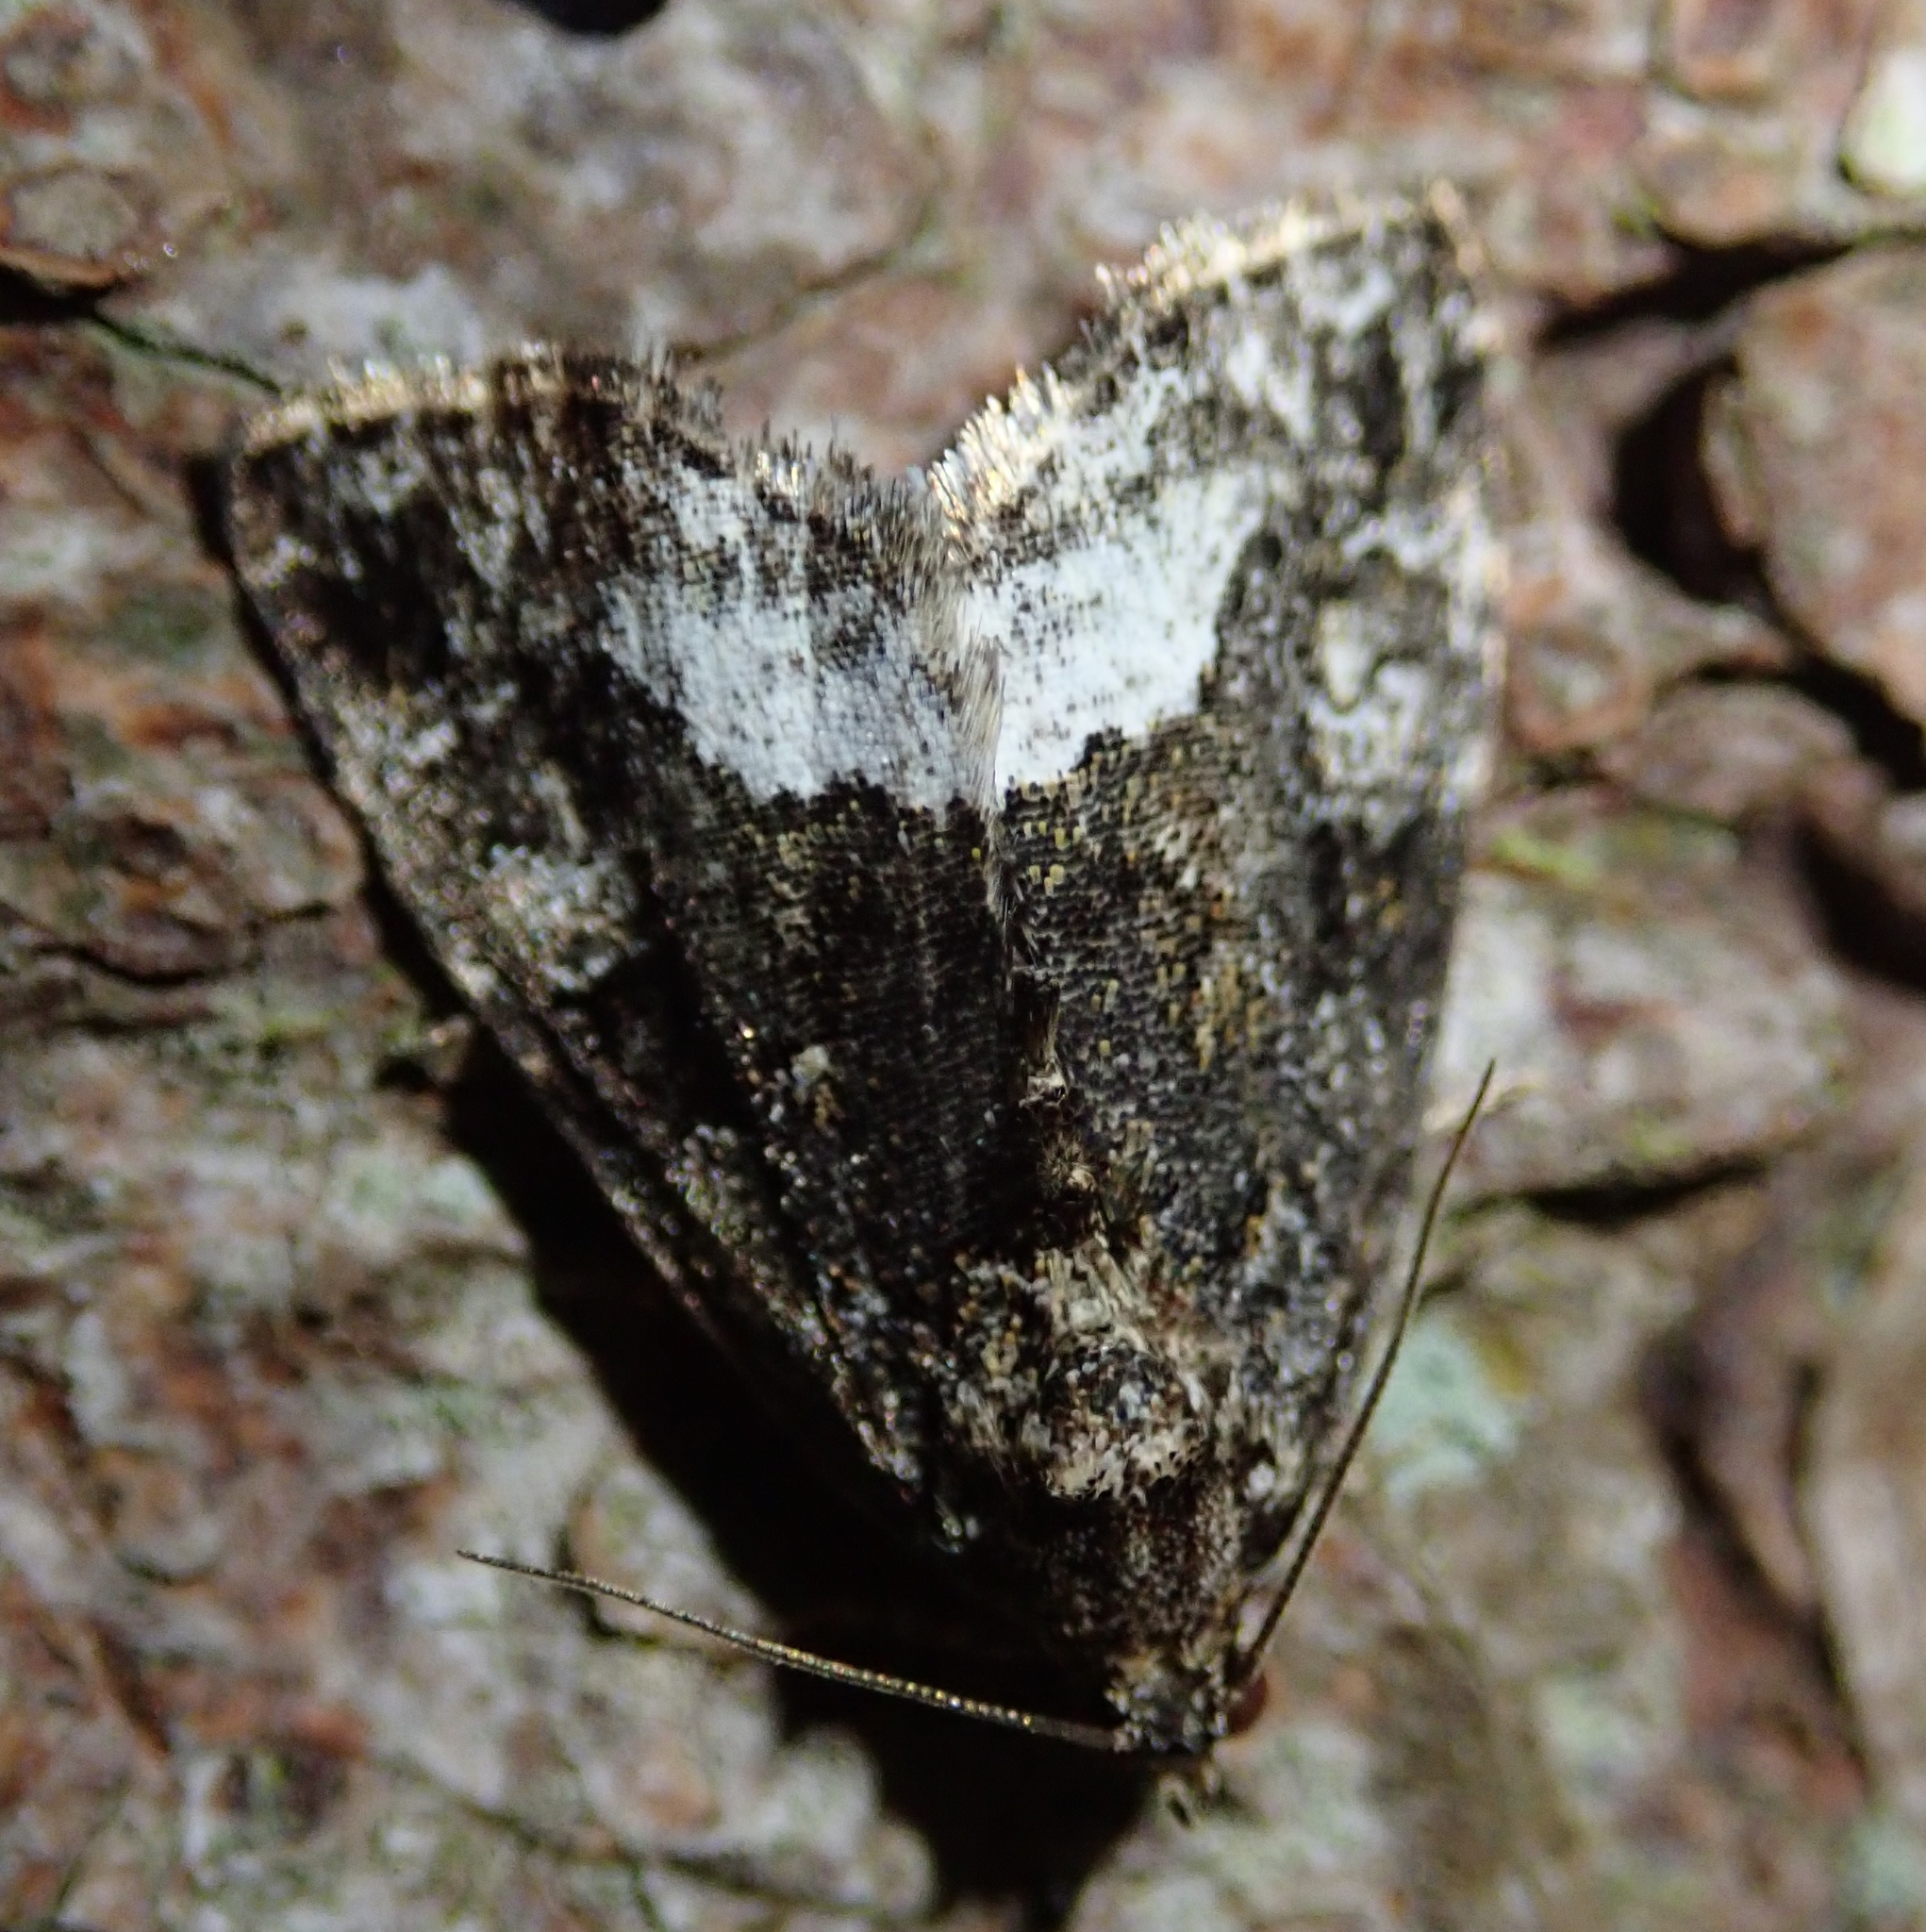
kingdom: Animalia
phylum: Arthropoda
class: Insecta
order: Lepidoptera
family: Noctuidae
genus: Deltote
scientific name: Deltote pygarga
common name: Marbled white spot
